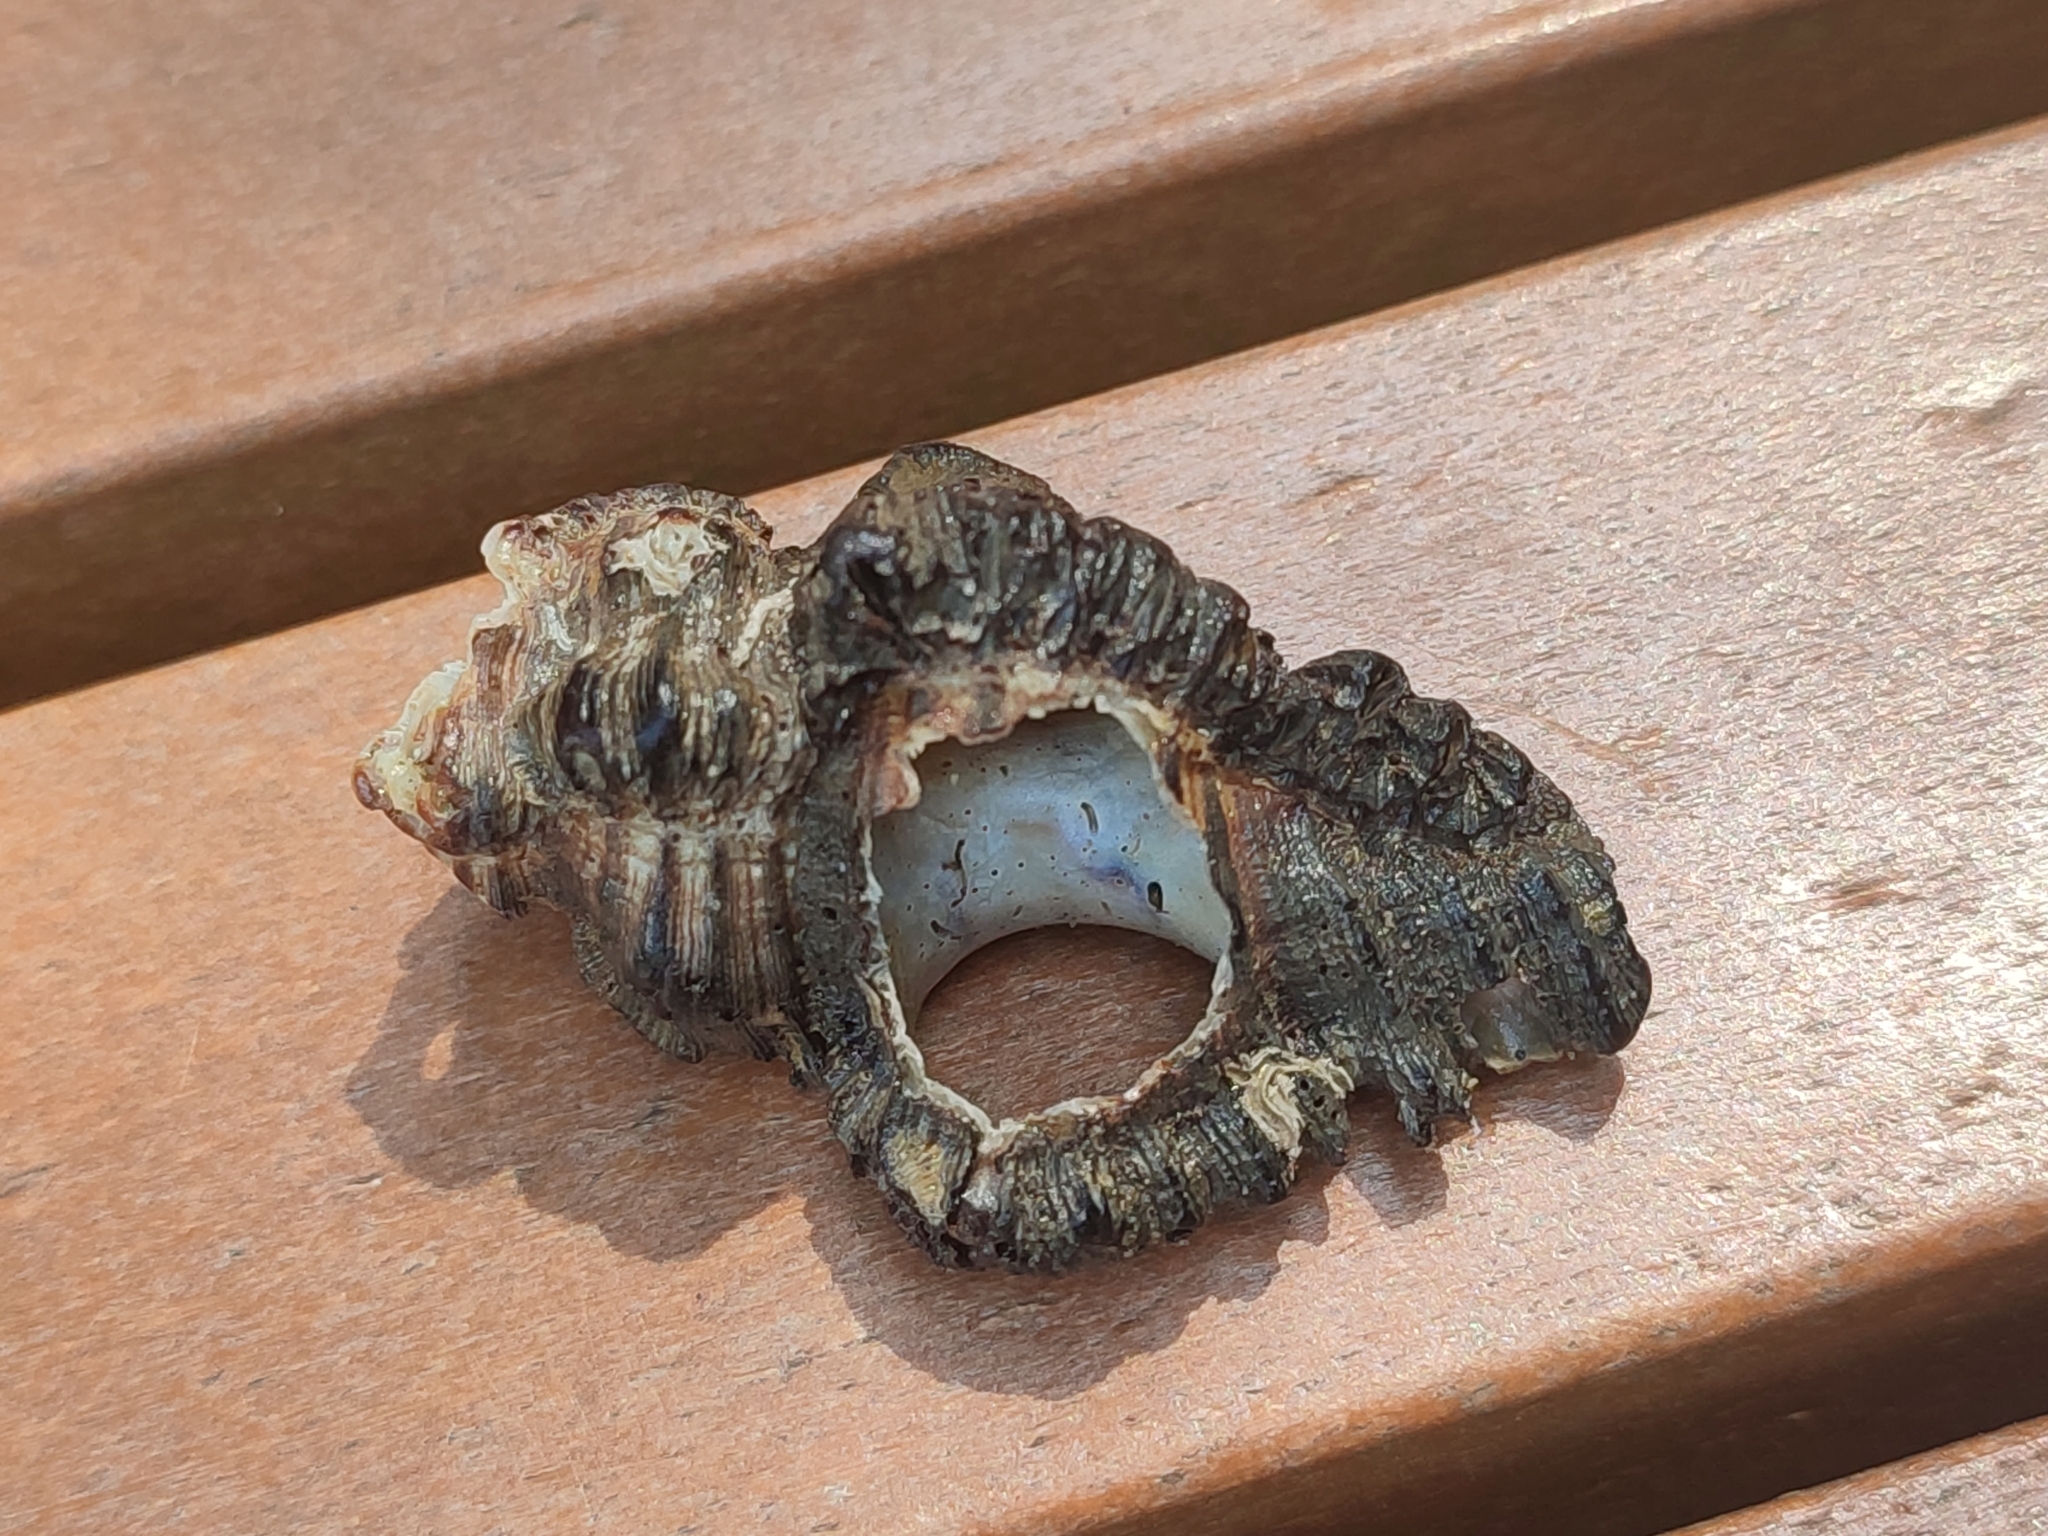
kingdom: Animalia
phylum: Mollusca
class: Gastropoda
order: Neogastropoda
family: Muricidae
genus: Chicoreus
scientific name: Chicoreus brunneus
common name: Adusta murex
